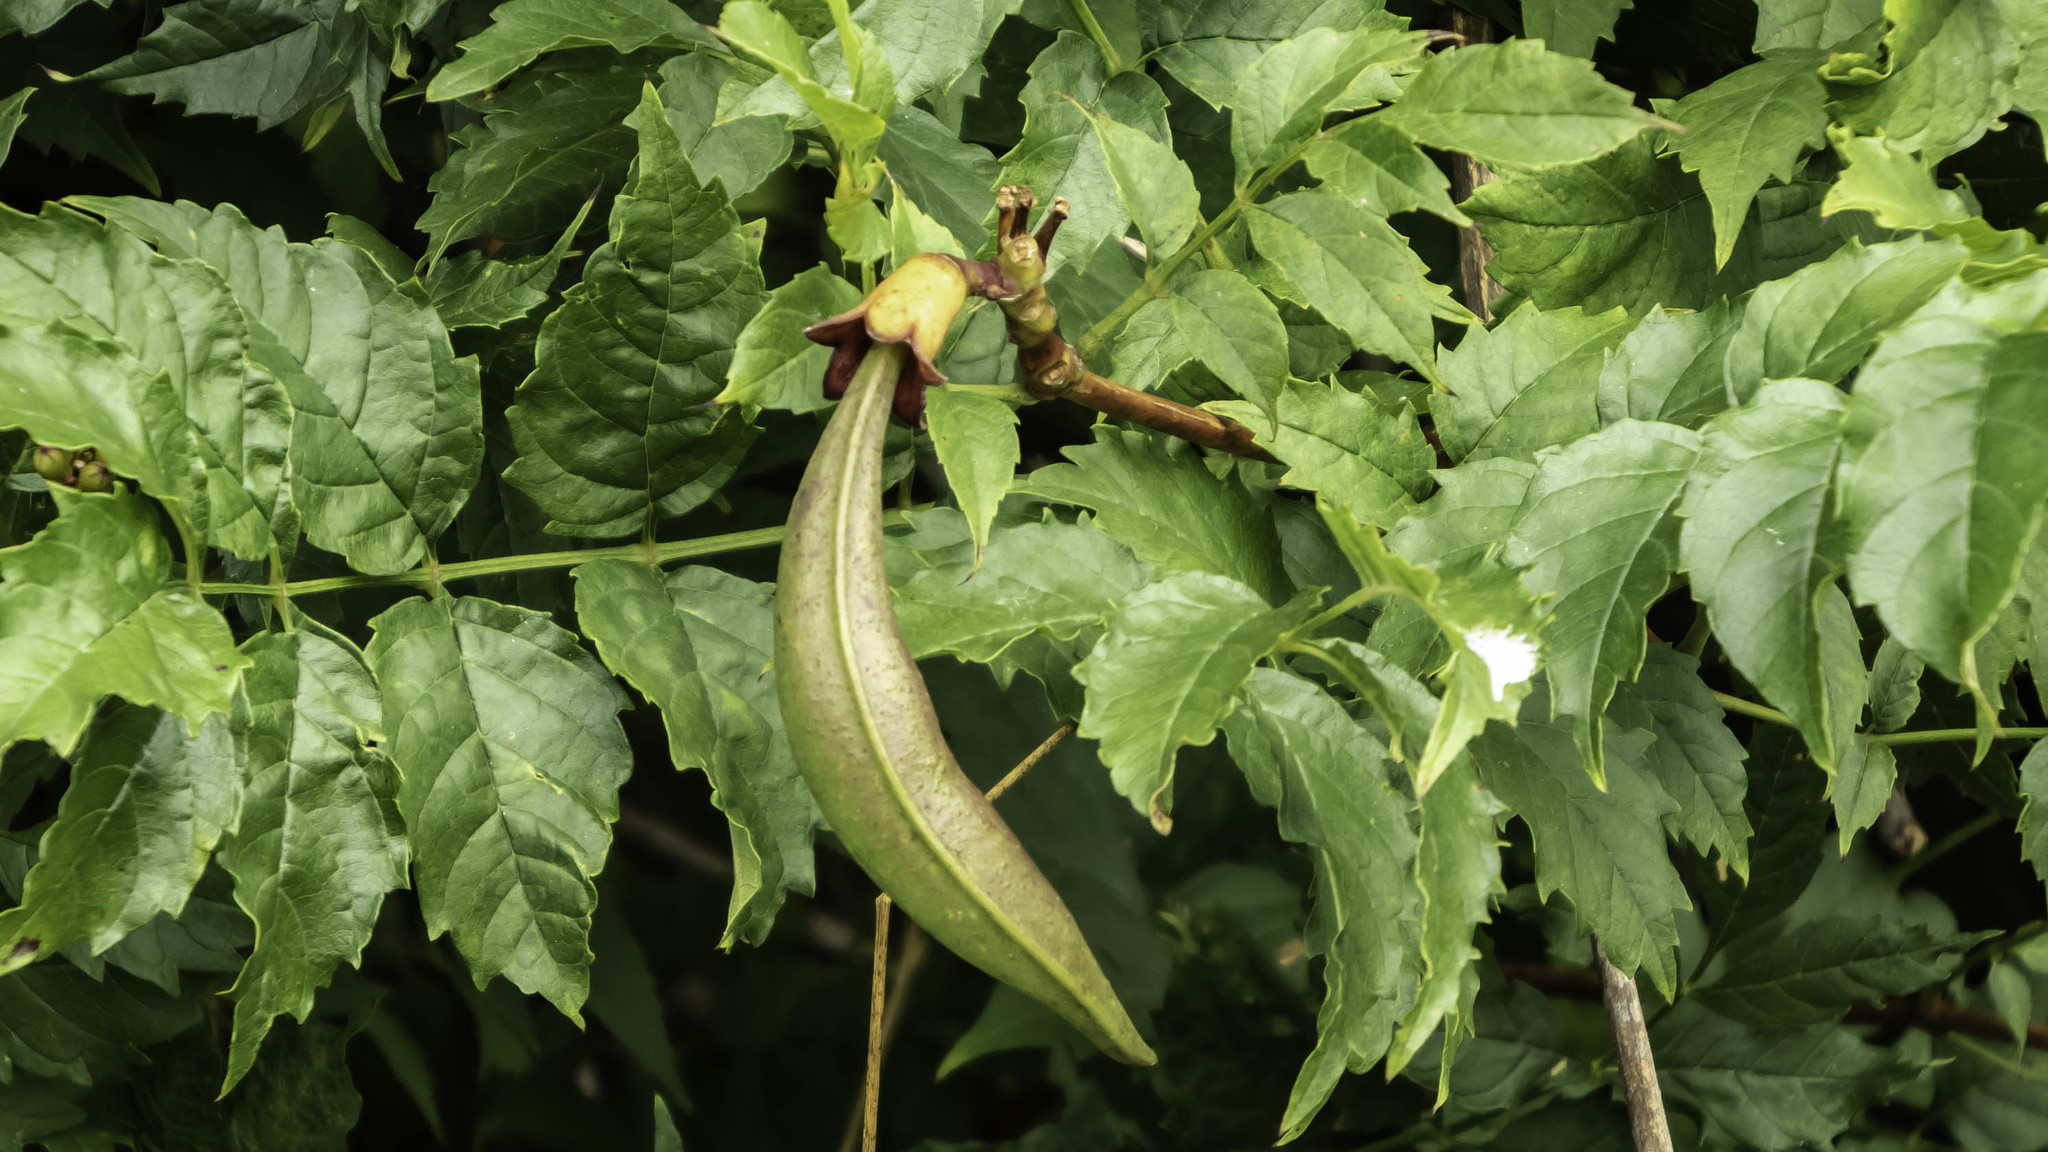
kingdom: Plantae
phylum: Tracheophyta
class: Magnoliopsida
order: Lamiales
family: Bignoniaceae
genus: Campsis
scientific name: Campsis radicans
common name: Trumpet-creeper
